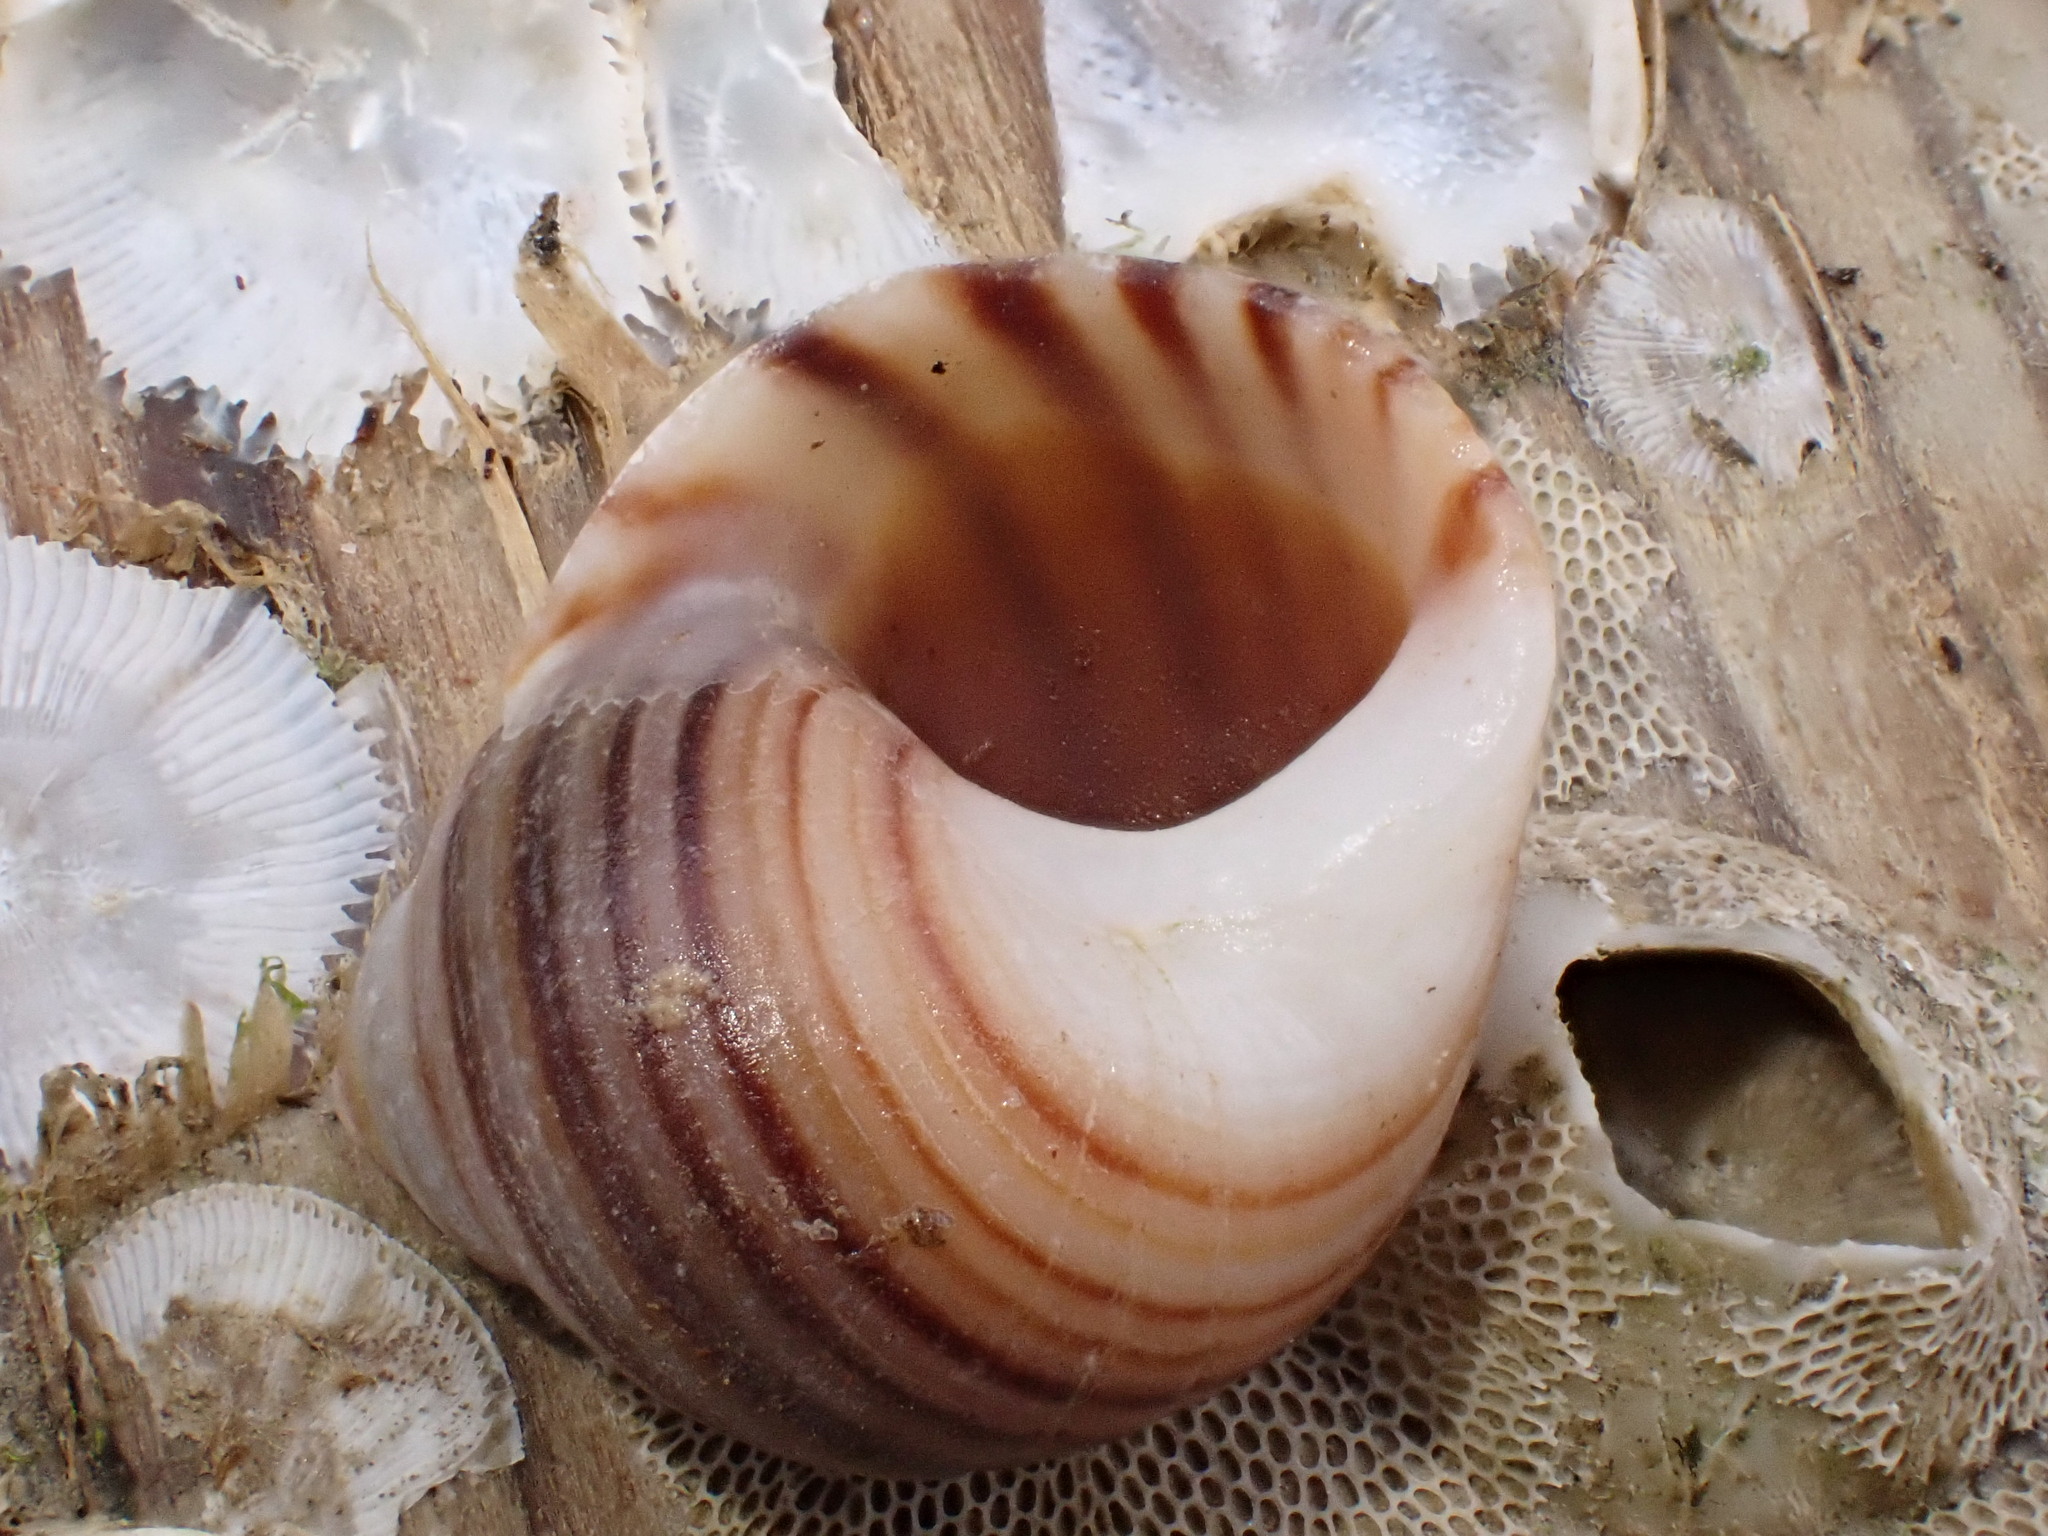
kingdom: Animalia
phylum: Mollusca
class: Gastropoda
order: Littorinimorpha
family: Littorinidae
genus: Littorina
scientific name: Littorina littorea
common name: Common periwinkle
